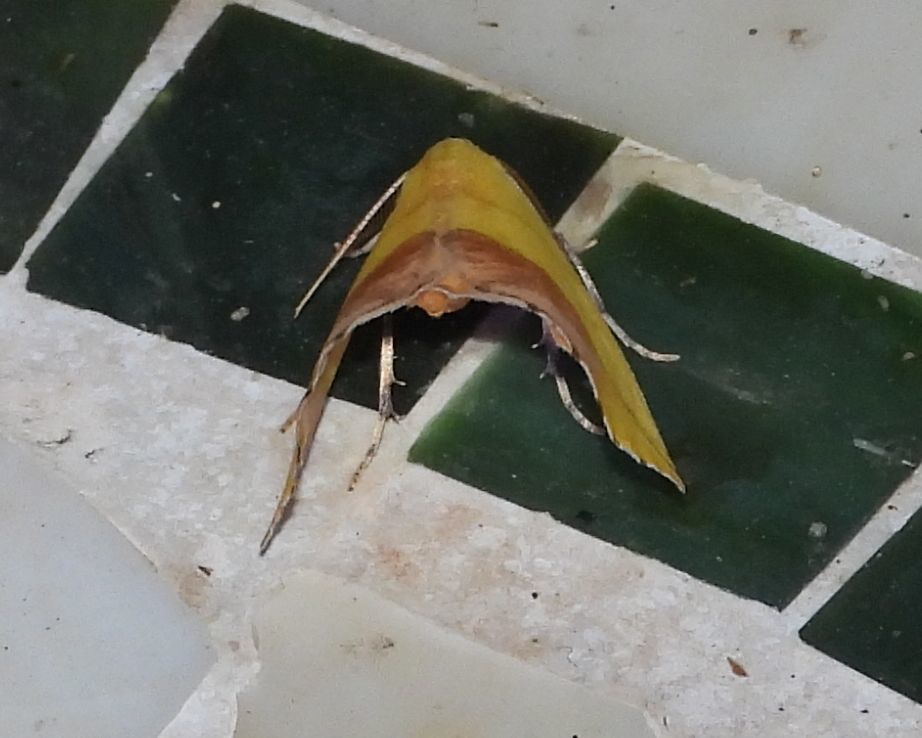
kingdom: Animalia
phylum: Arthropoda
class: Insecta
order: Lepidoptera
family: Geometridae
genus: Sicya
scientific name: Sicya macularia
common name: Sharp-lined yellow
